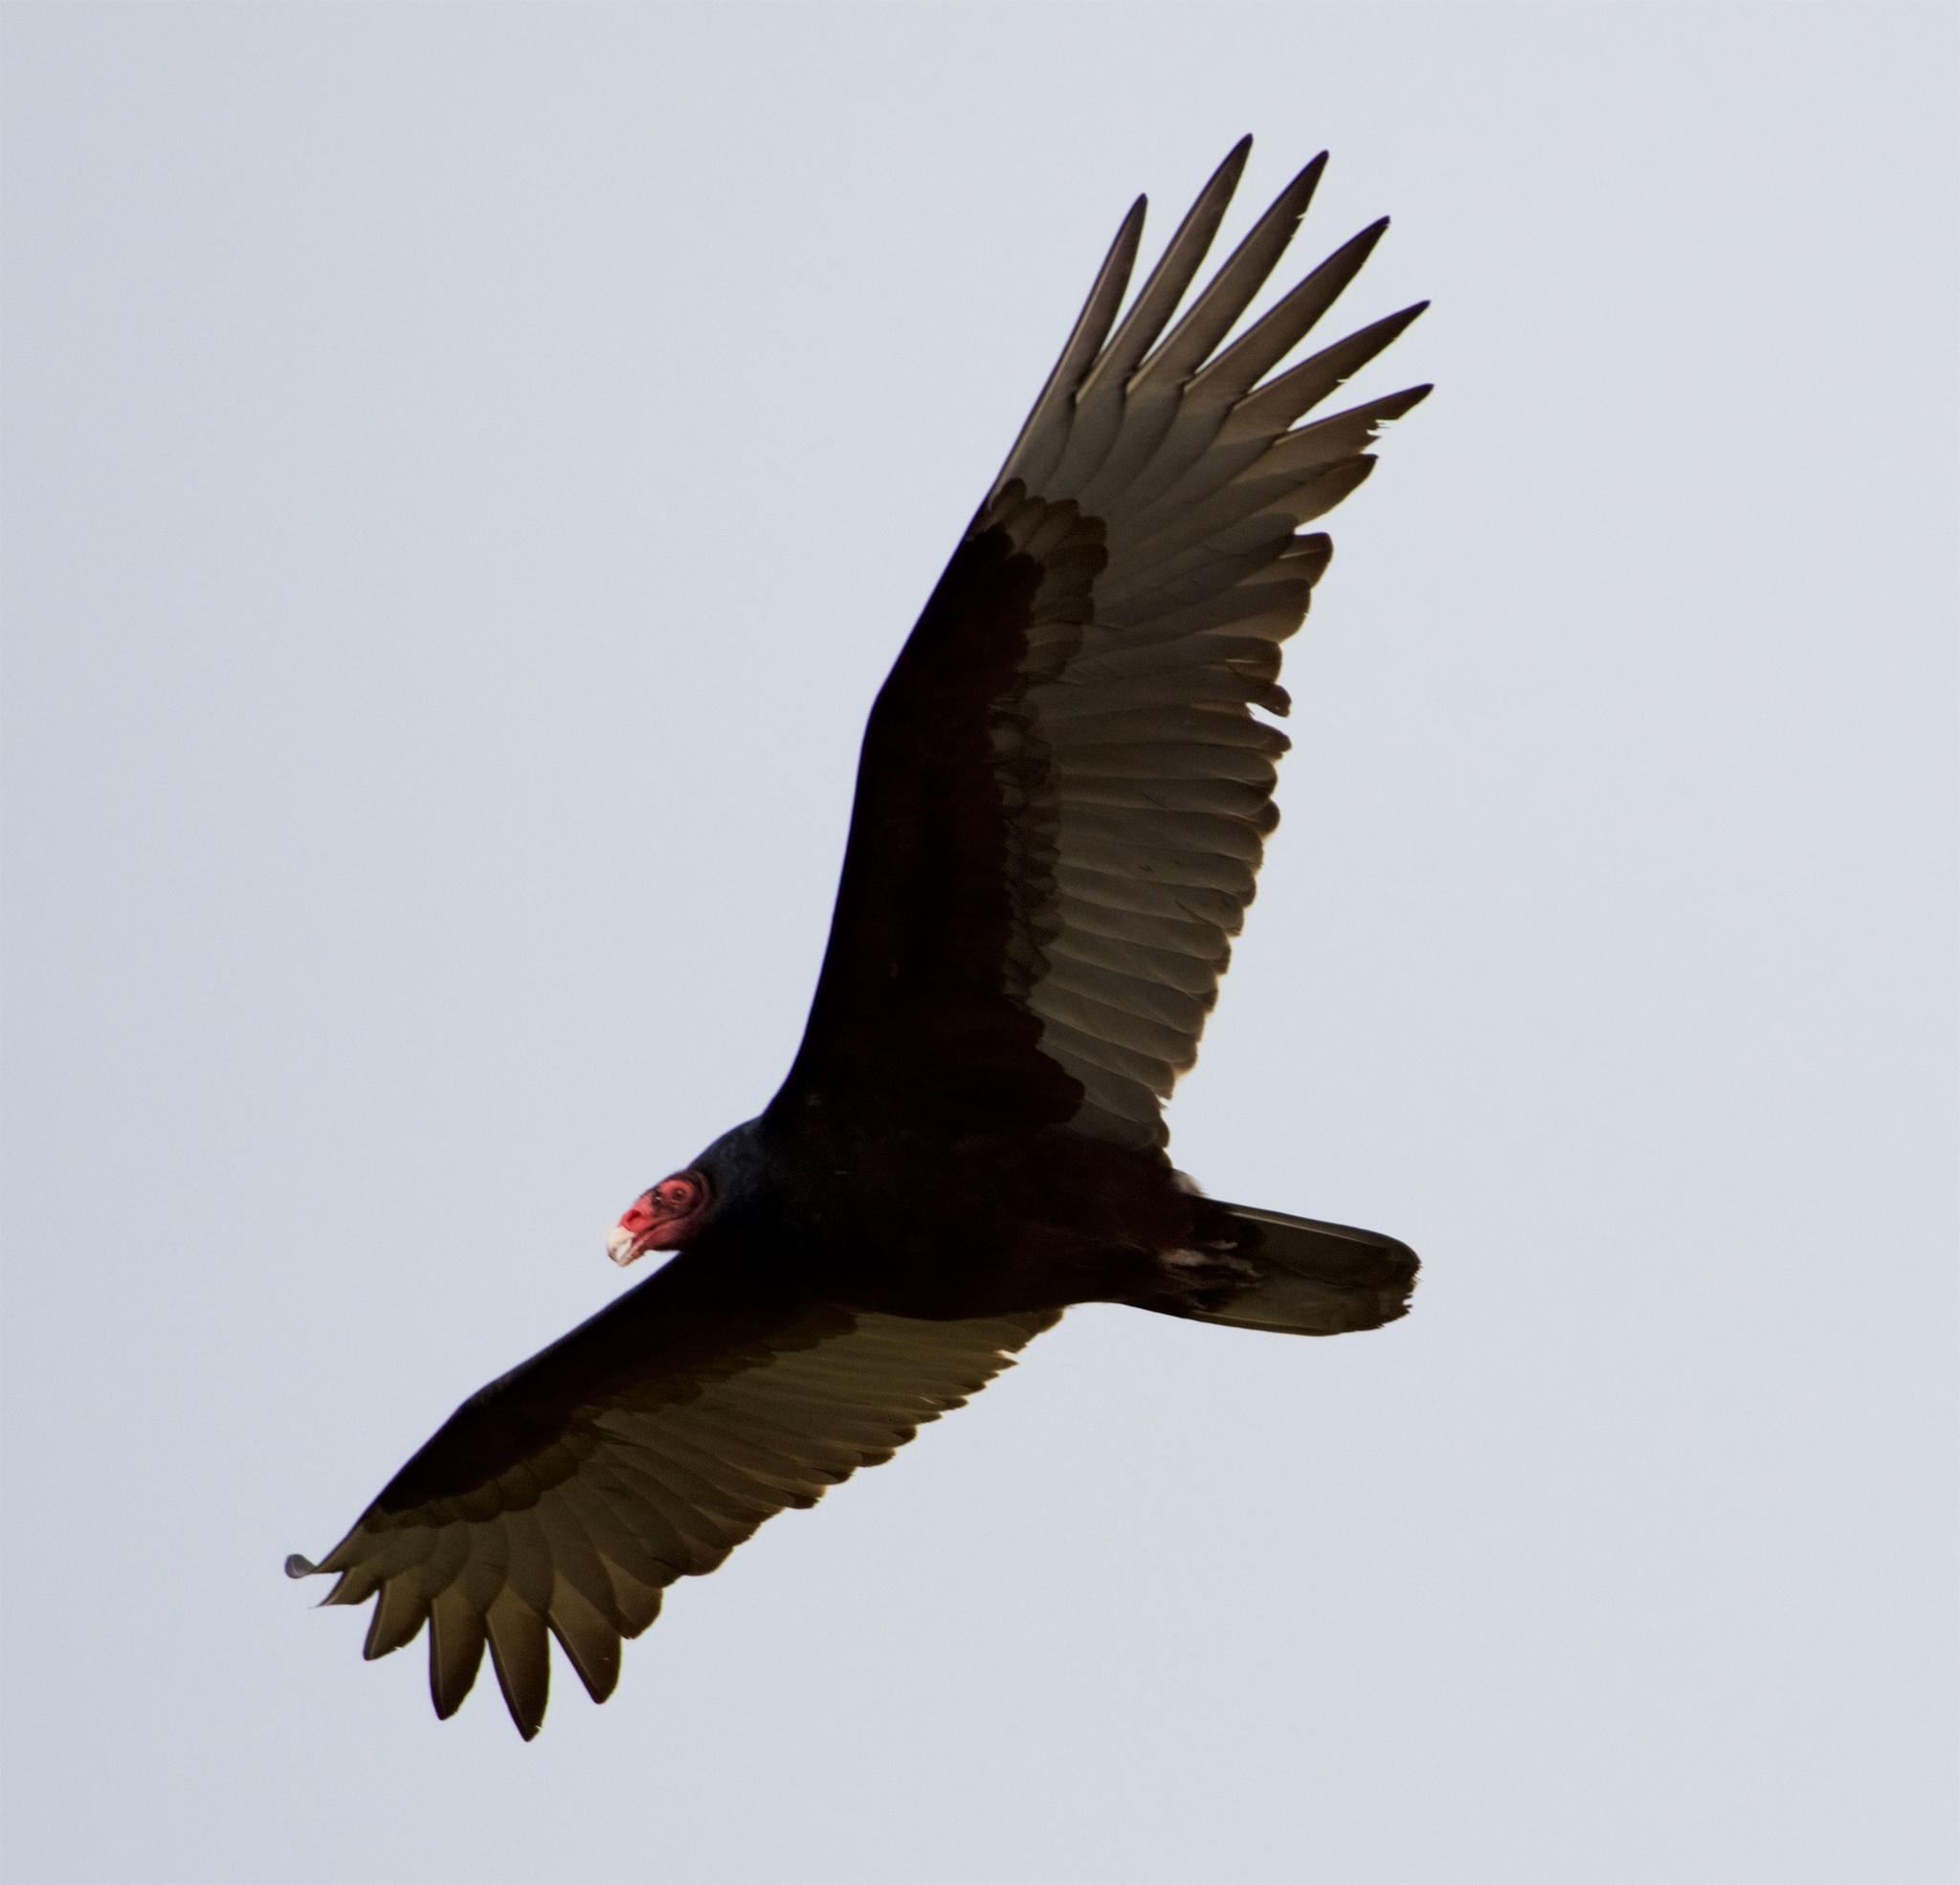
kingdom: Animalia
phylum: Chordata
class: Aves
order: Accipitriformes
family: Cathartidae
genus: Cathartes
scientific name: Cathartes aura
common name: Turkey vulture
